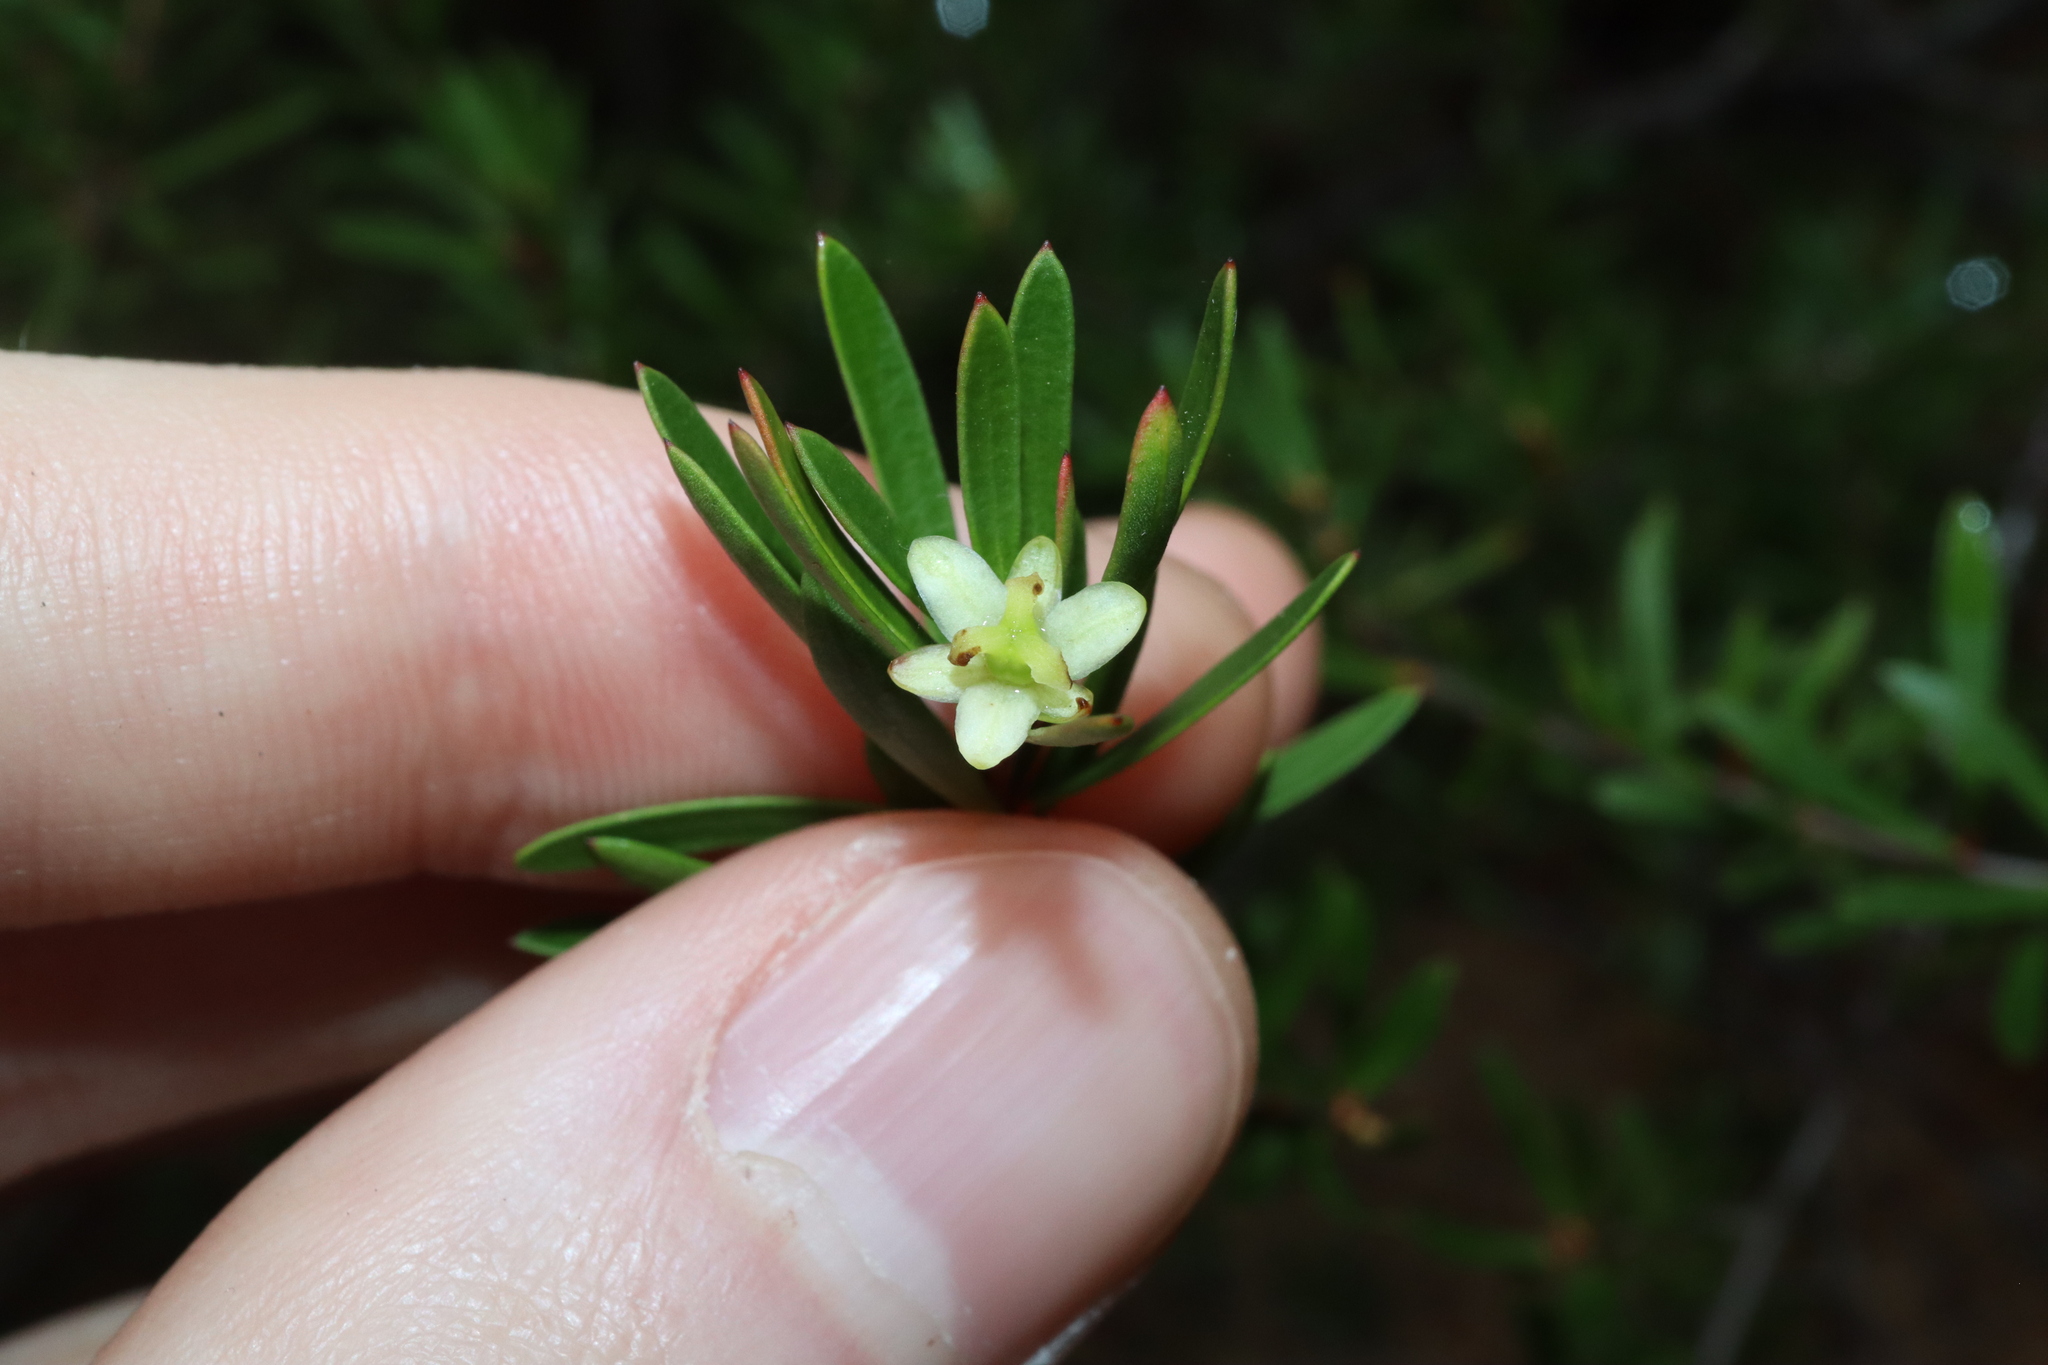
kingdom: Plantae
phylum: Tracheophyta
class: Magnoliopsida
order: Malpighiales
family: Picrodendraceae
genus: Micrantheum
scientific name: Micrantheum hexandrum
